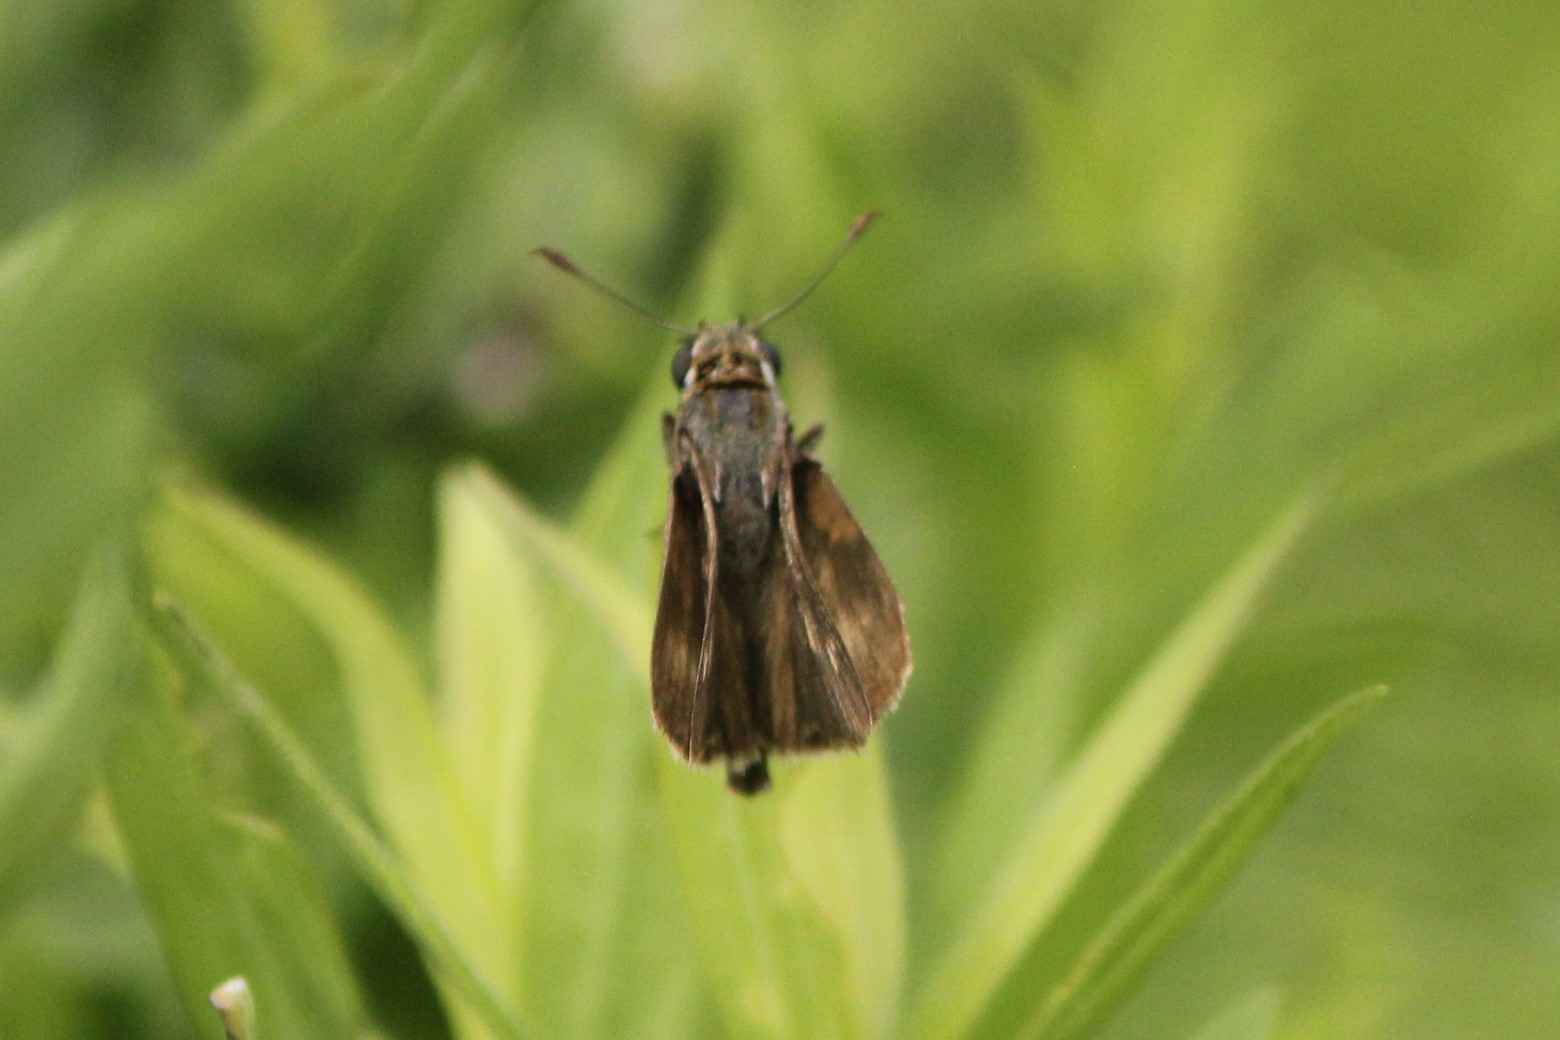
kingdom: Animalia
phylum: Arthropoda
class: Insecta
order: Lepidoptera
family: Hesperiidae
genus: Polites
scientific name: Polites egeremet
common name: Northern broken-dash
